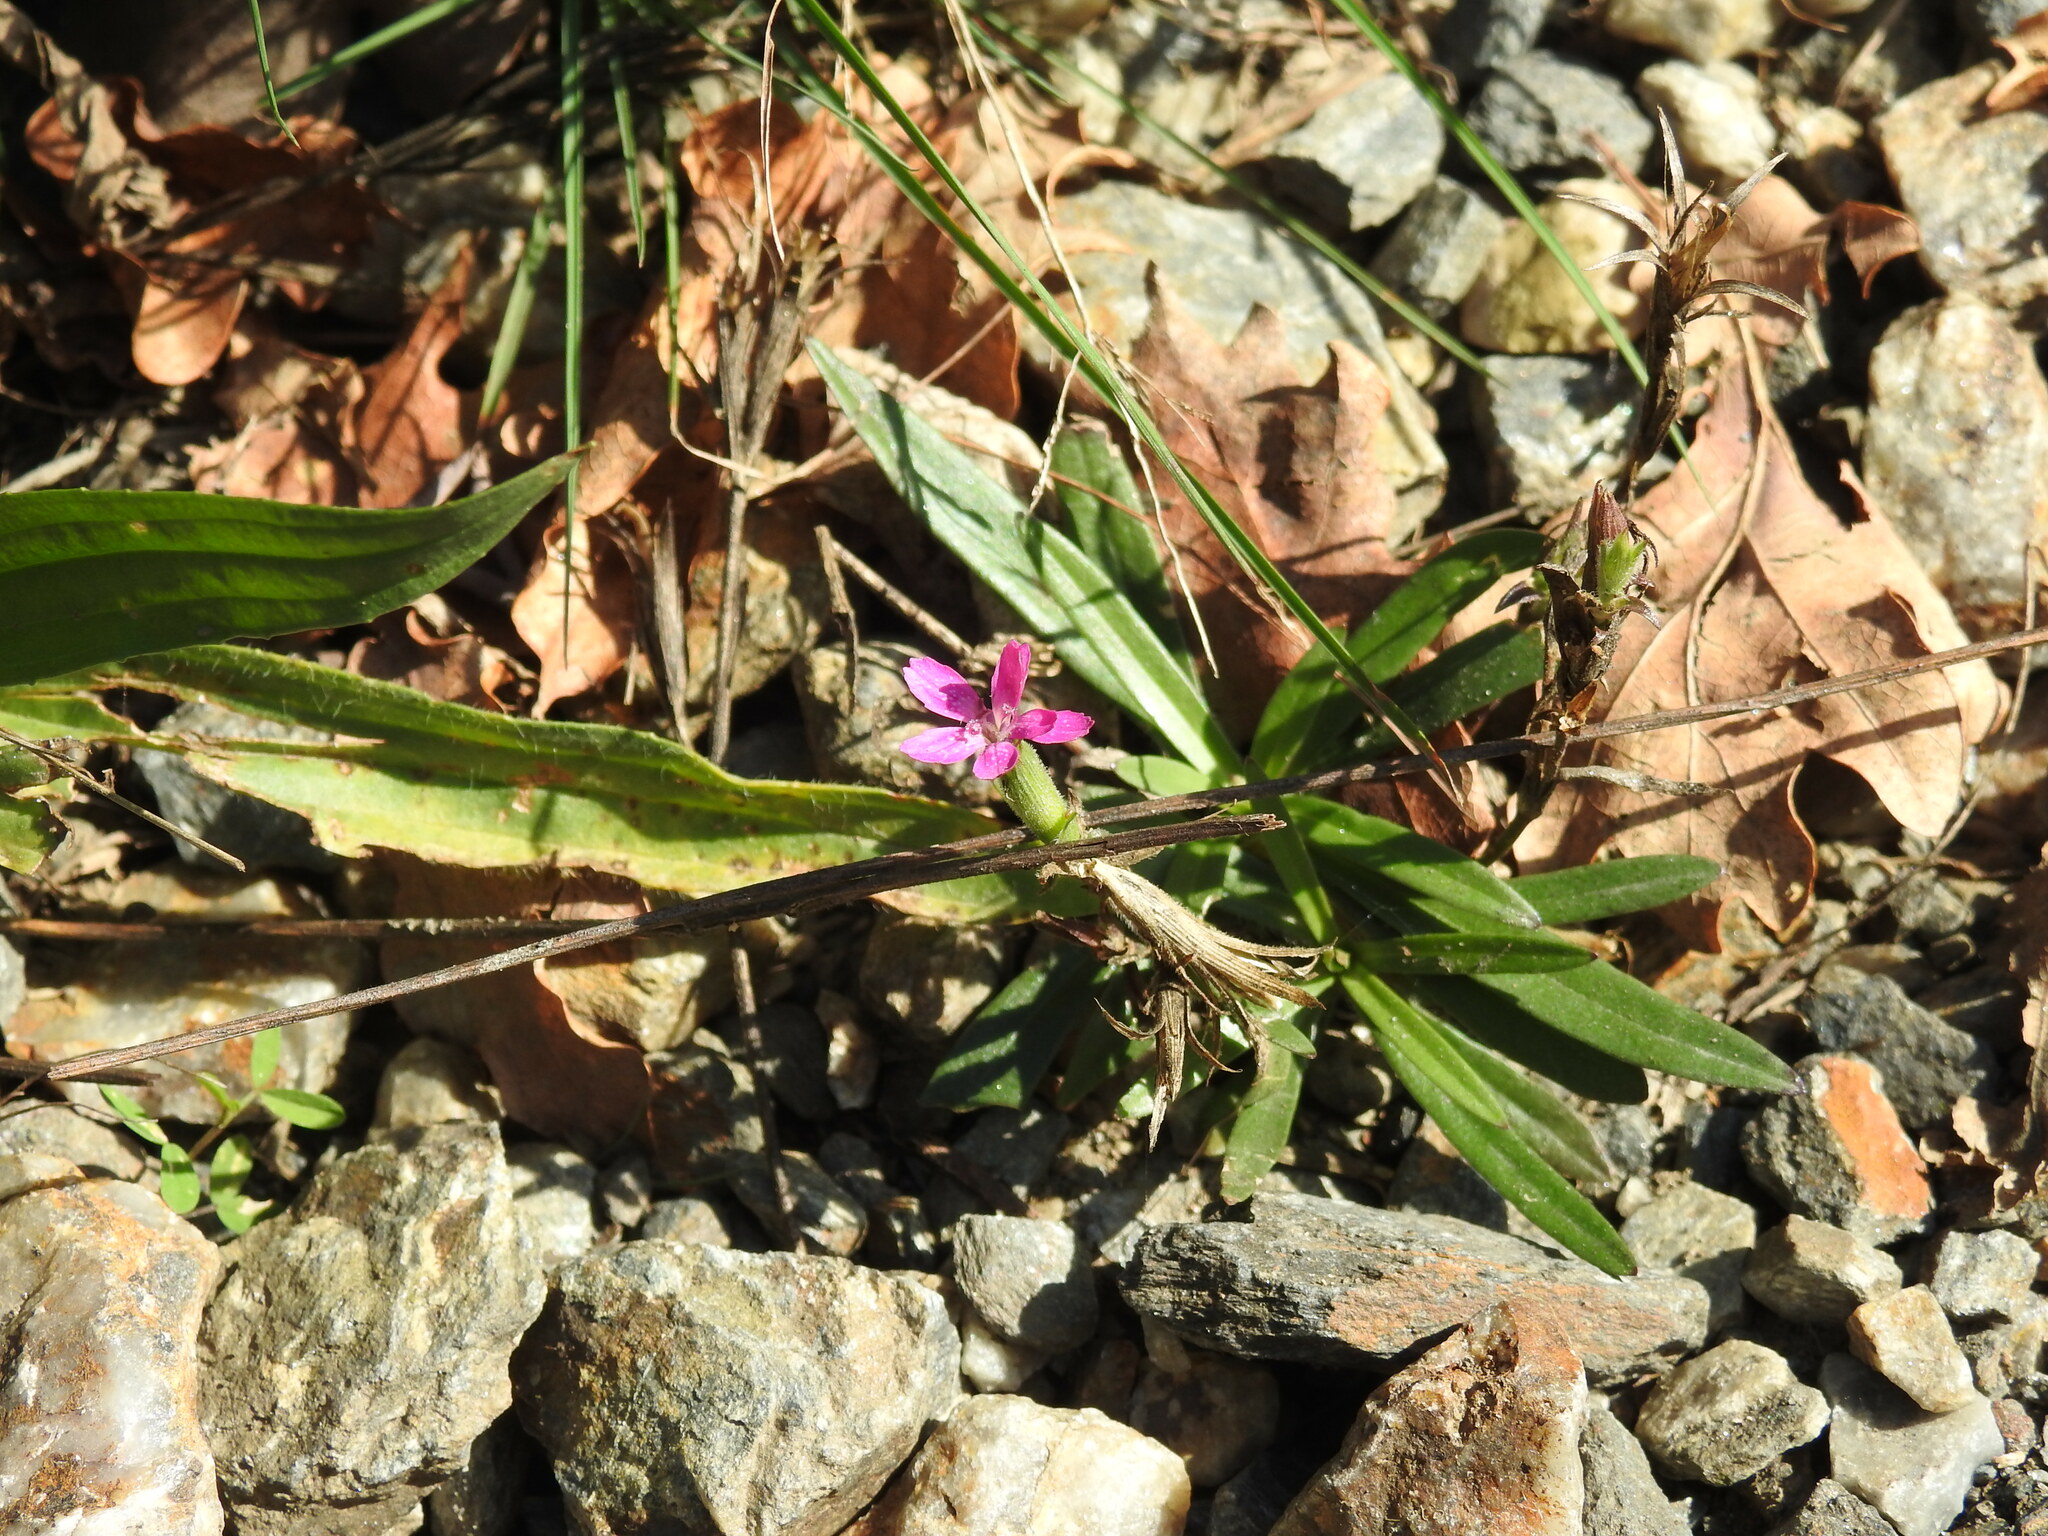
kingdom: Plantae
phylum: Tracheophyta
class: Magnoliopsida
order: Caryophyllales
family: Caryophyllaceae
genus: Dianthus
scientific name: Dianthus armeria
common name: Deptford pink
